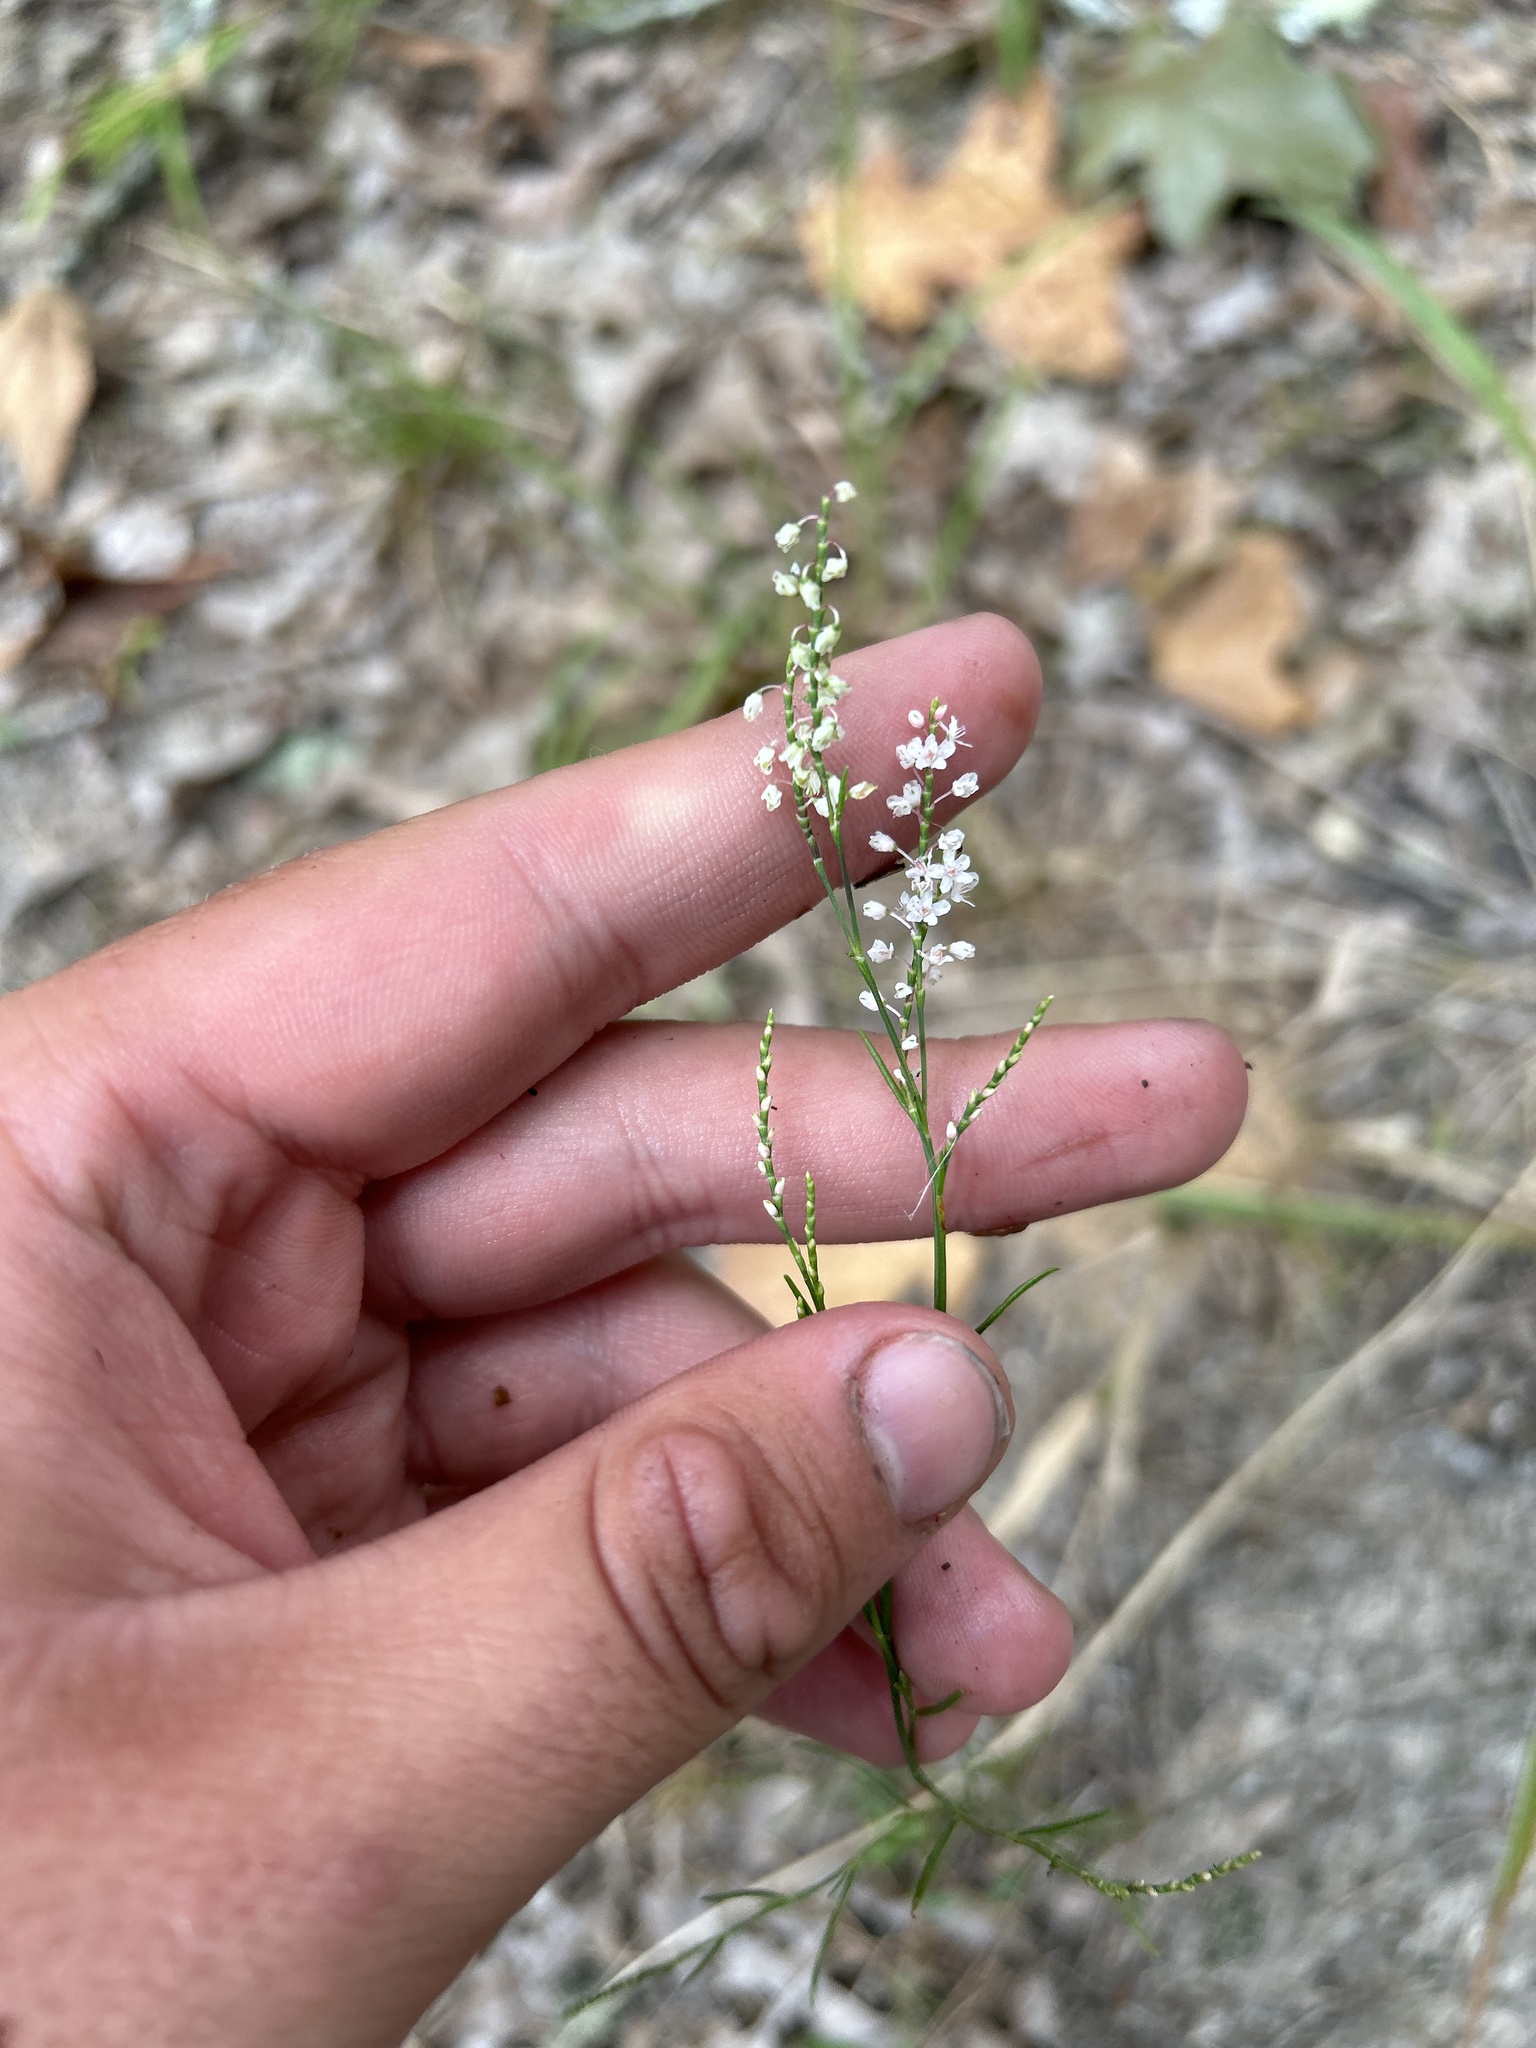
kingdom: Plantae
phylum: Tracheophyta
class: Magnoliopsida
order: Caryophyllales
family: Polygonaceae
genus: Polygonella
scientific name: Polygonella articulata
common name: Coastal jointweed
